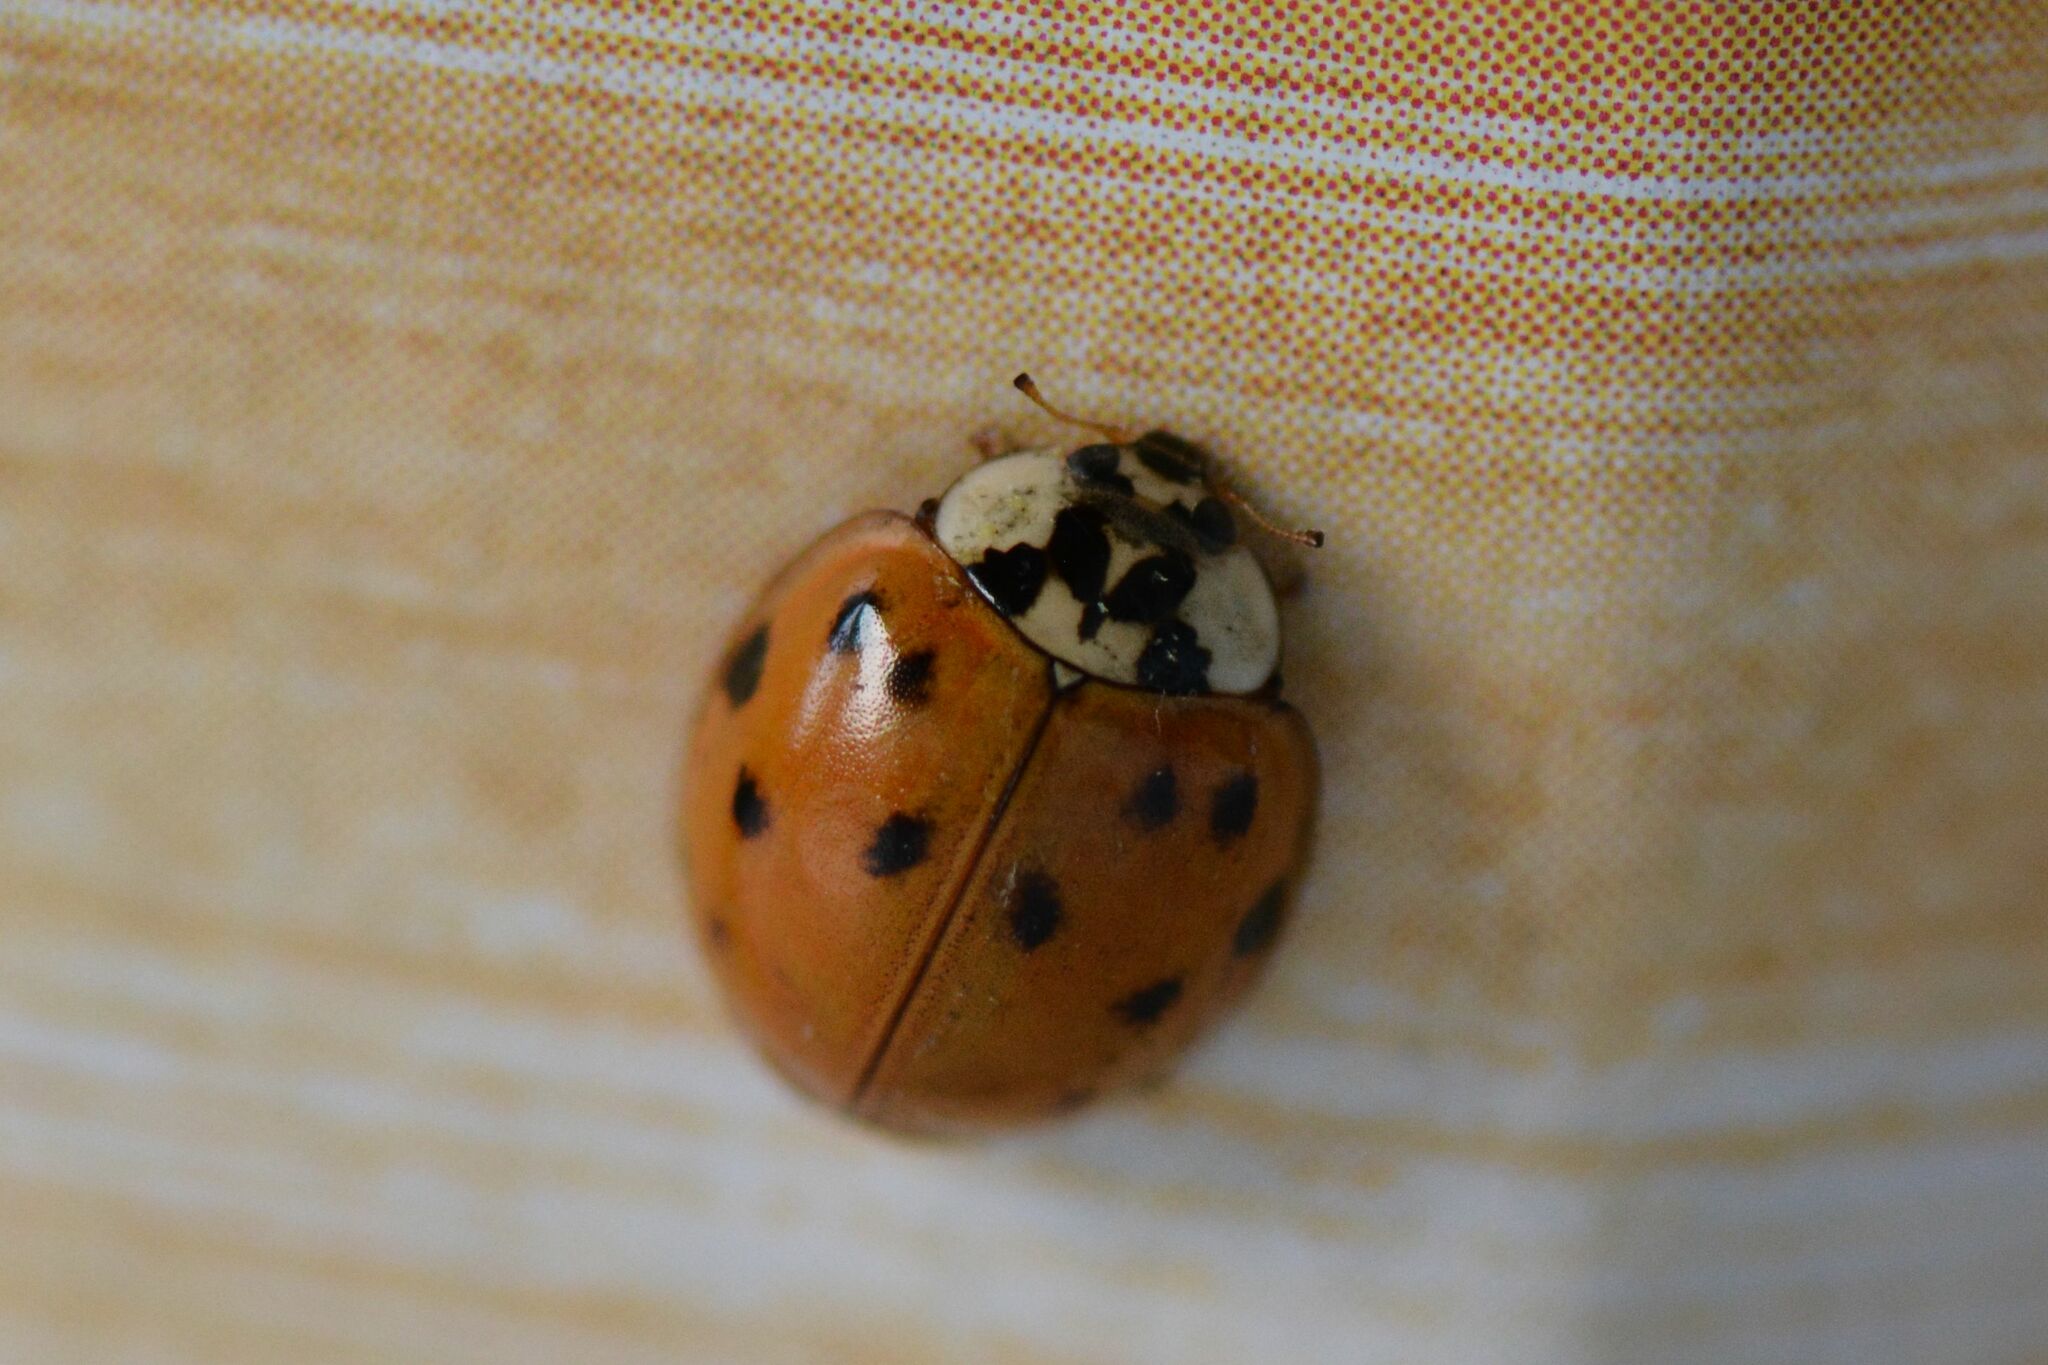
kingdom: Animalia
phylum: Arthropoda
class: Insecta
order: Coleoptera
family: Coccinellidae
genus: Harmonia
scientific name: Harmonia axyridis
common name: Harlequin ladybird
